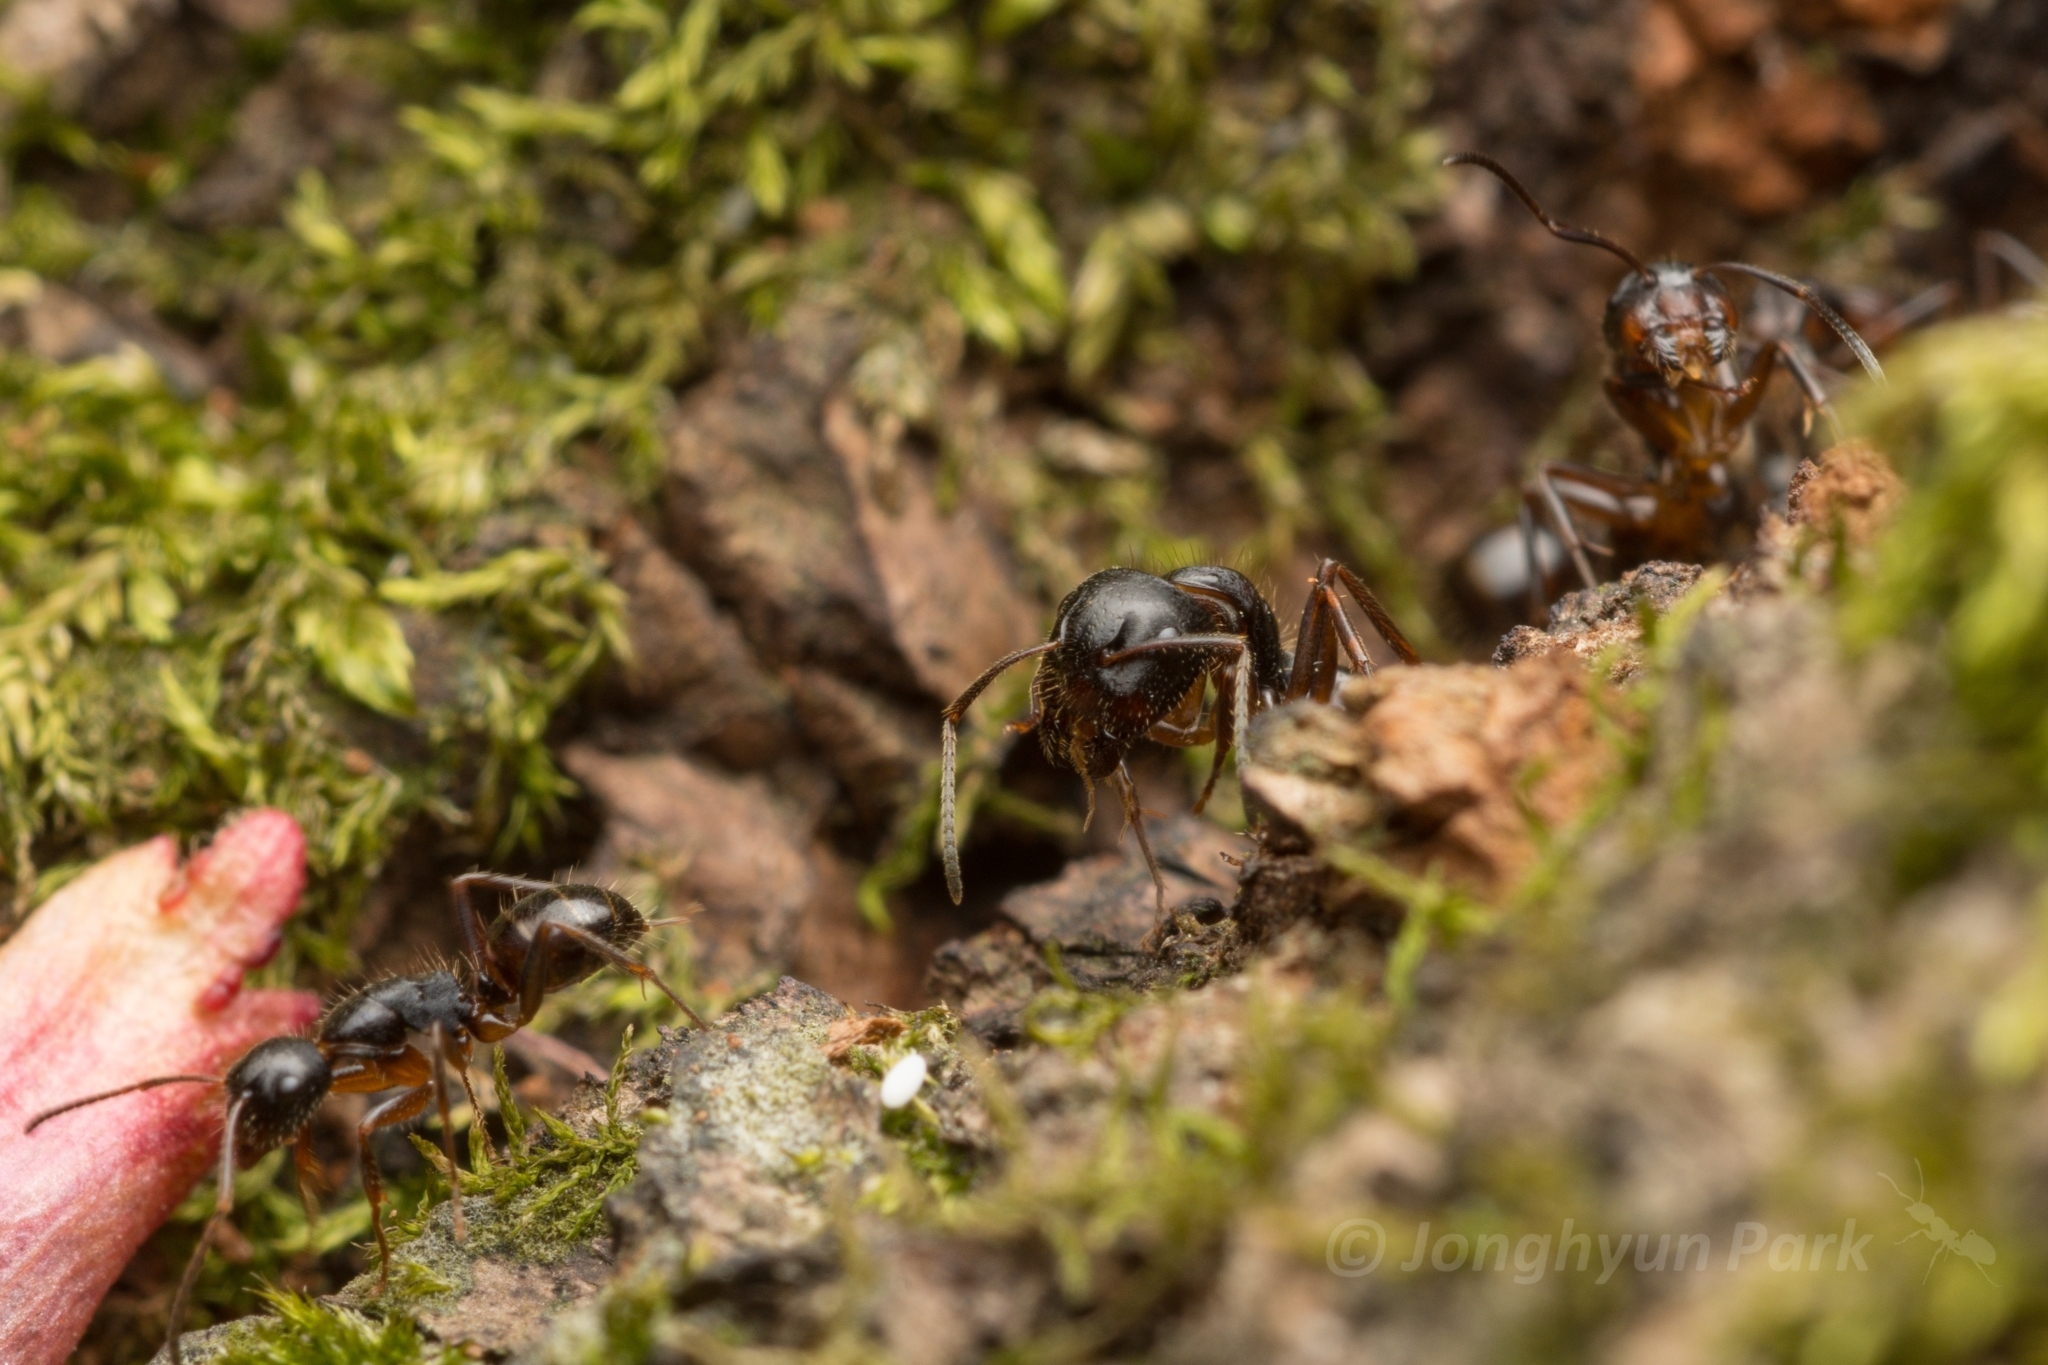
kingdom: Animalia
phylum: Arthropoda
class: Insecta
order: Hymenoptera
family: Formicidae
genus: Camponotus
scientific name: Camponotus nipponensis
